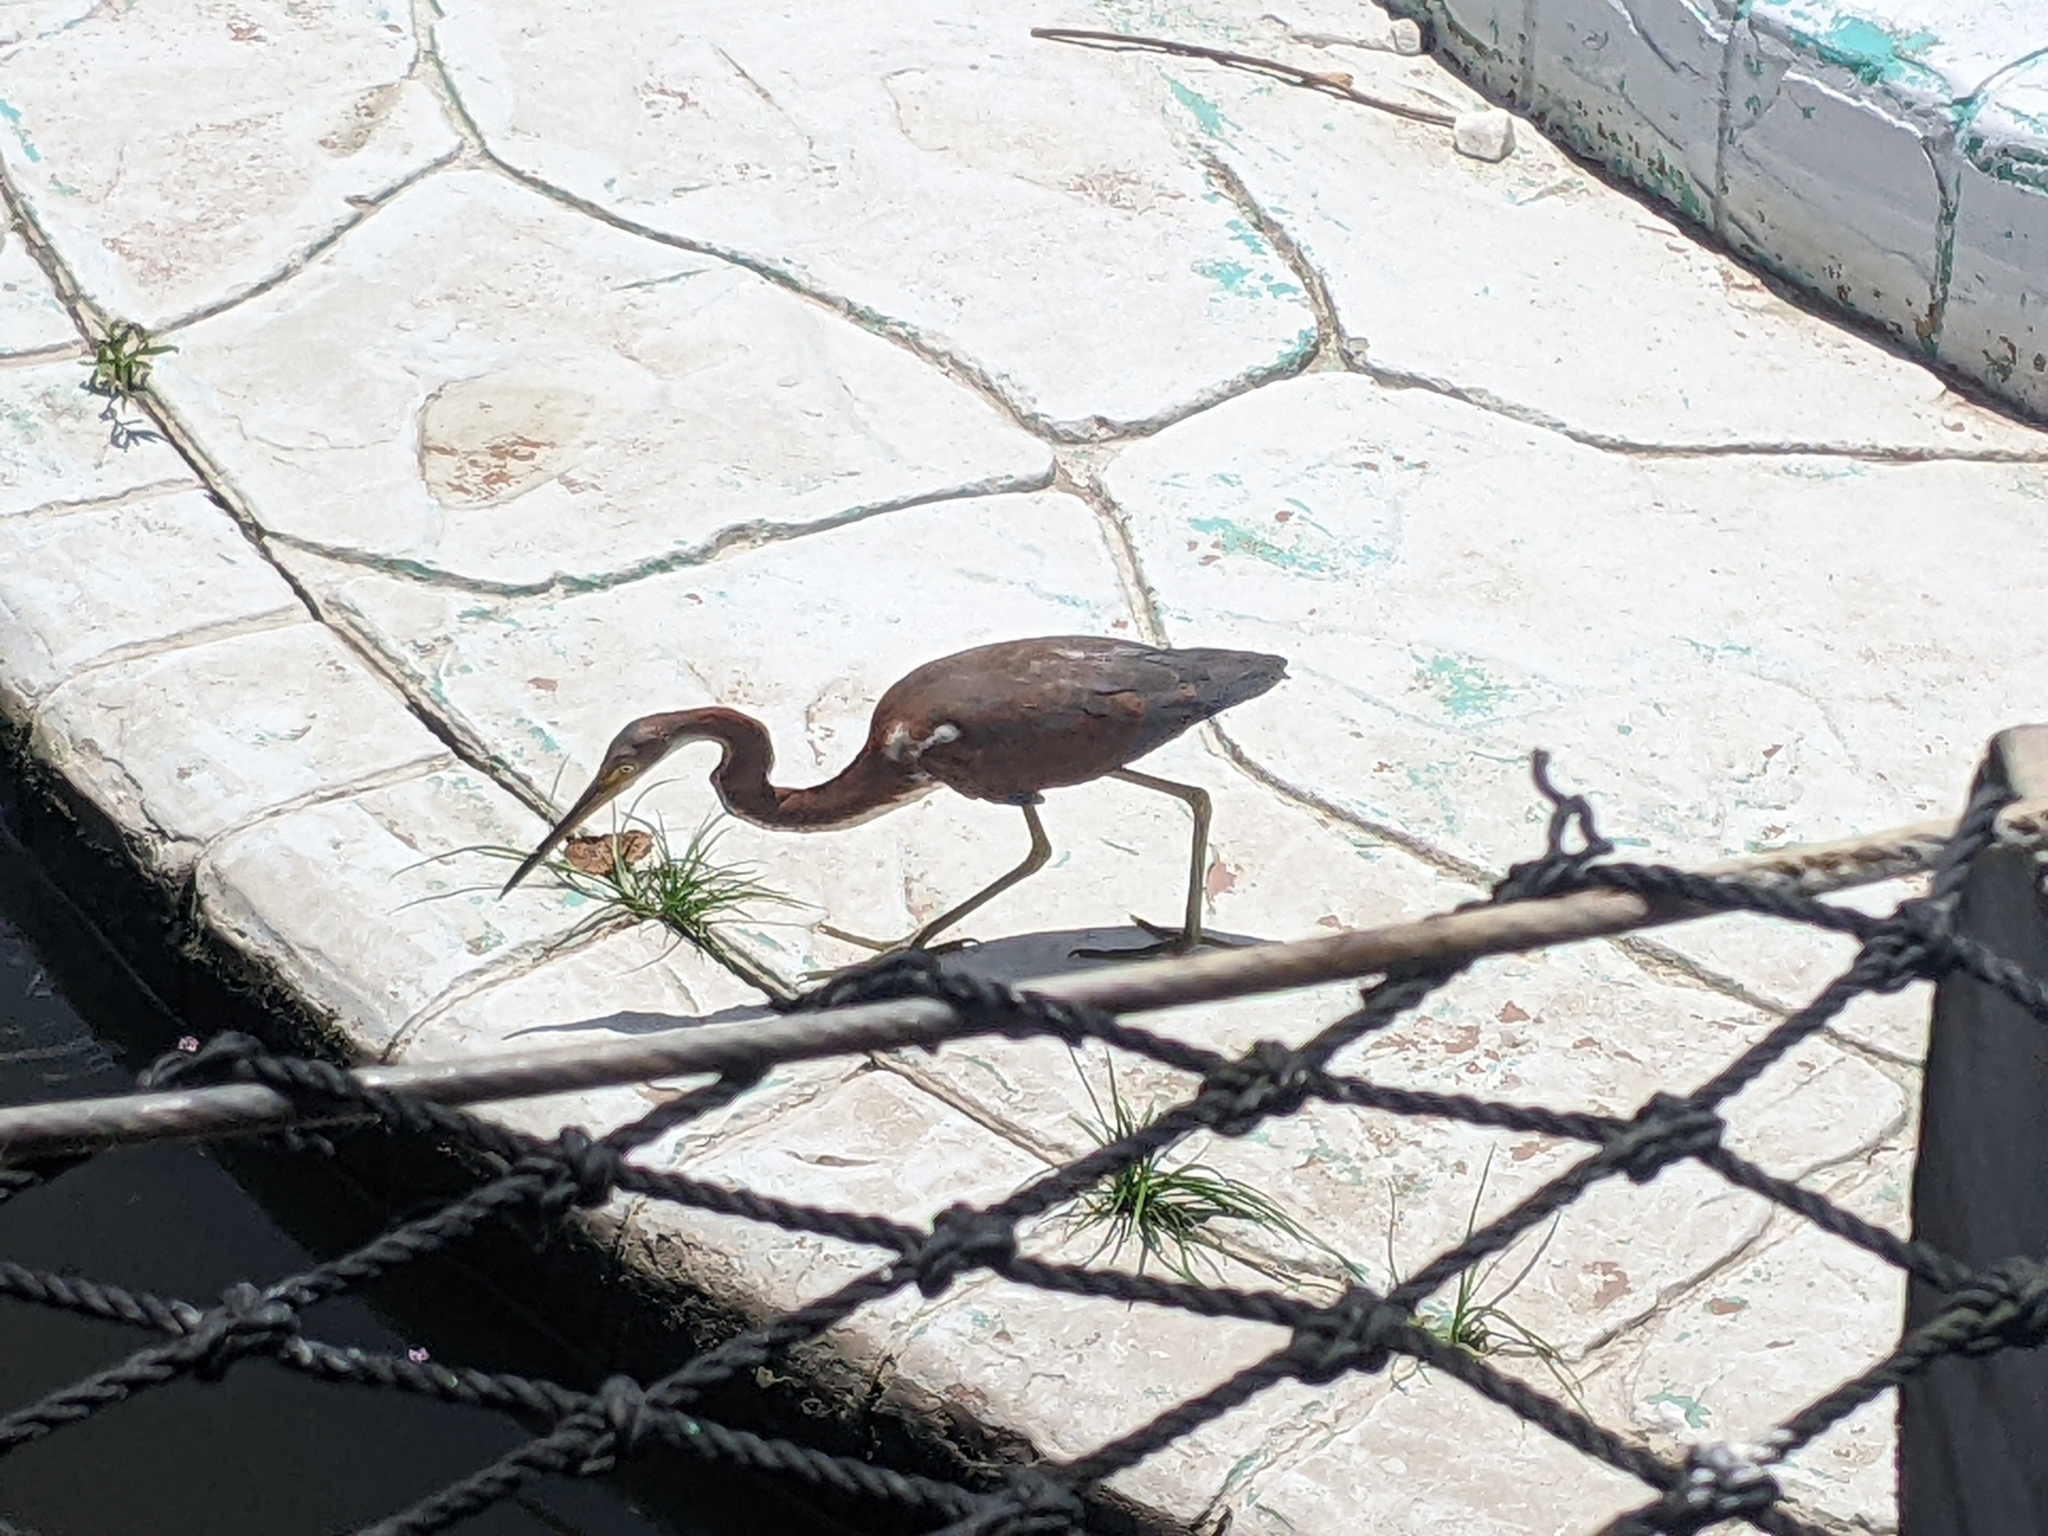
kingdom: Animalia
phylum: Chordata
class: Aves
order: Pelecaniformes
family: Ardeidae
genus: Egretta
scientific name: Egretta tricolor
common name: Tricolored heron
